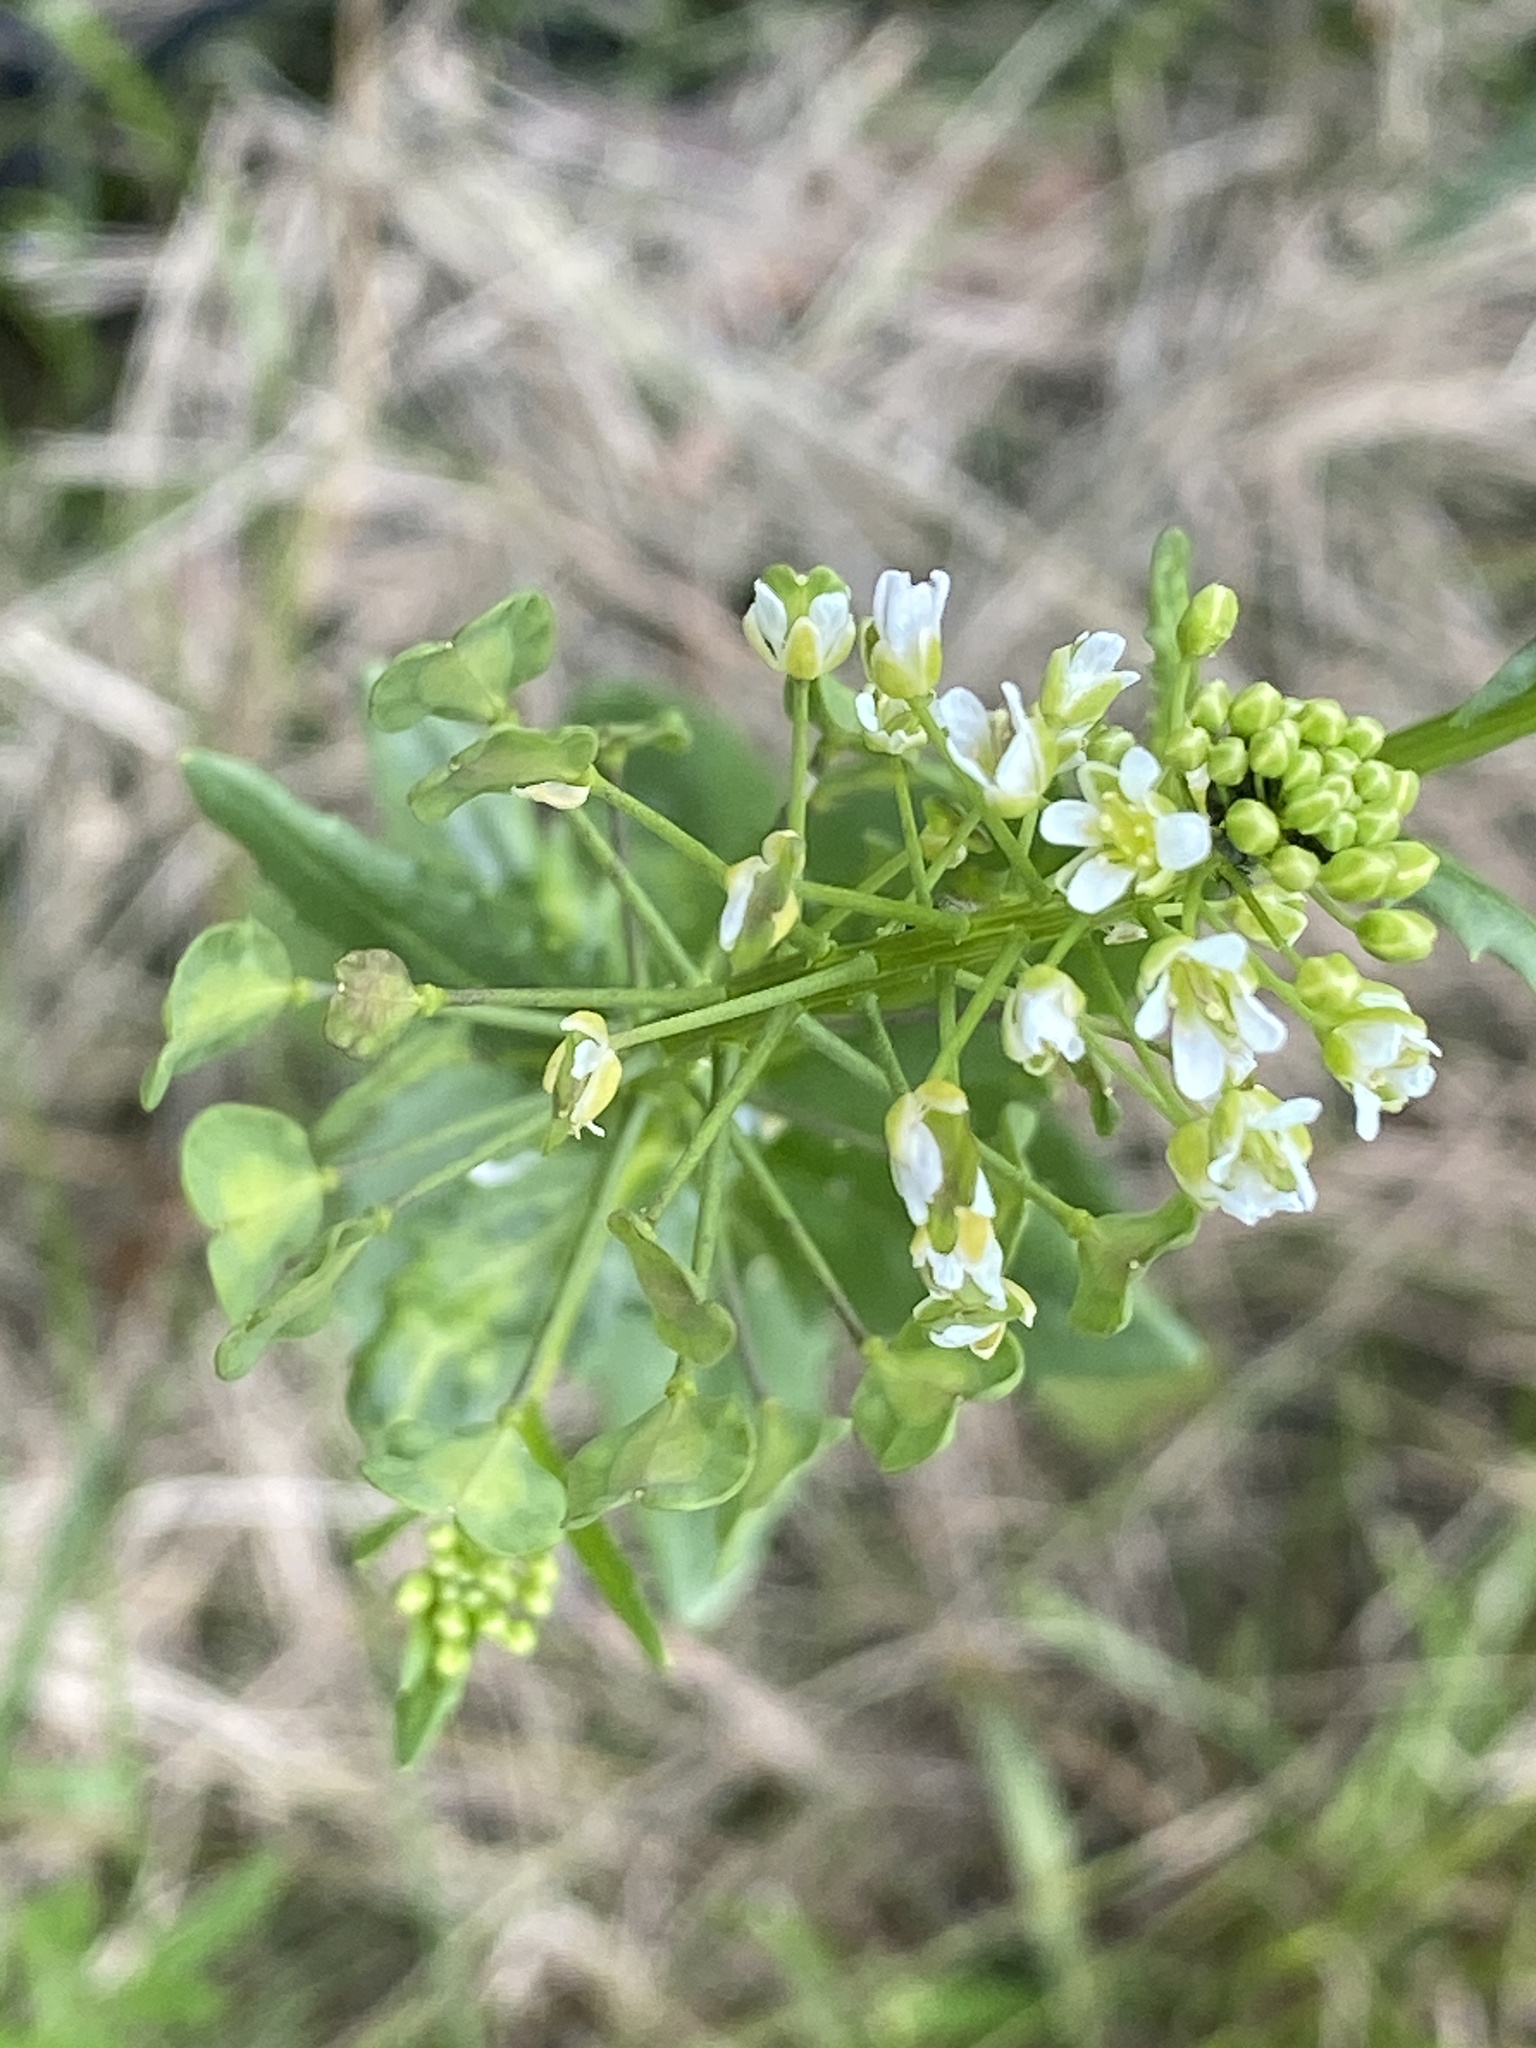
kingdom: Plantae
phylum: Tracheophyta
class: Magnoliopsida
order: Brassicales
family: Brassicaceae
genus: Thlaspi
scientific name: Thlaspi arvense
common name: Field pennycress
